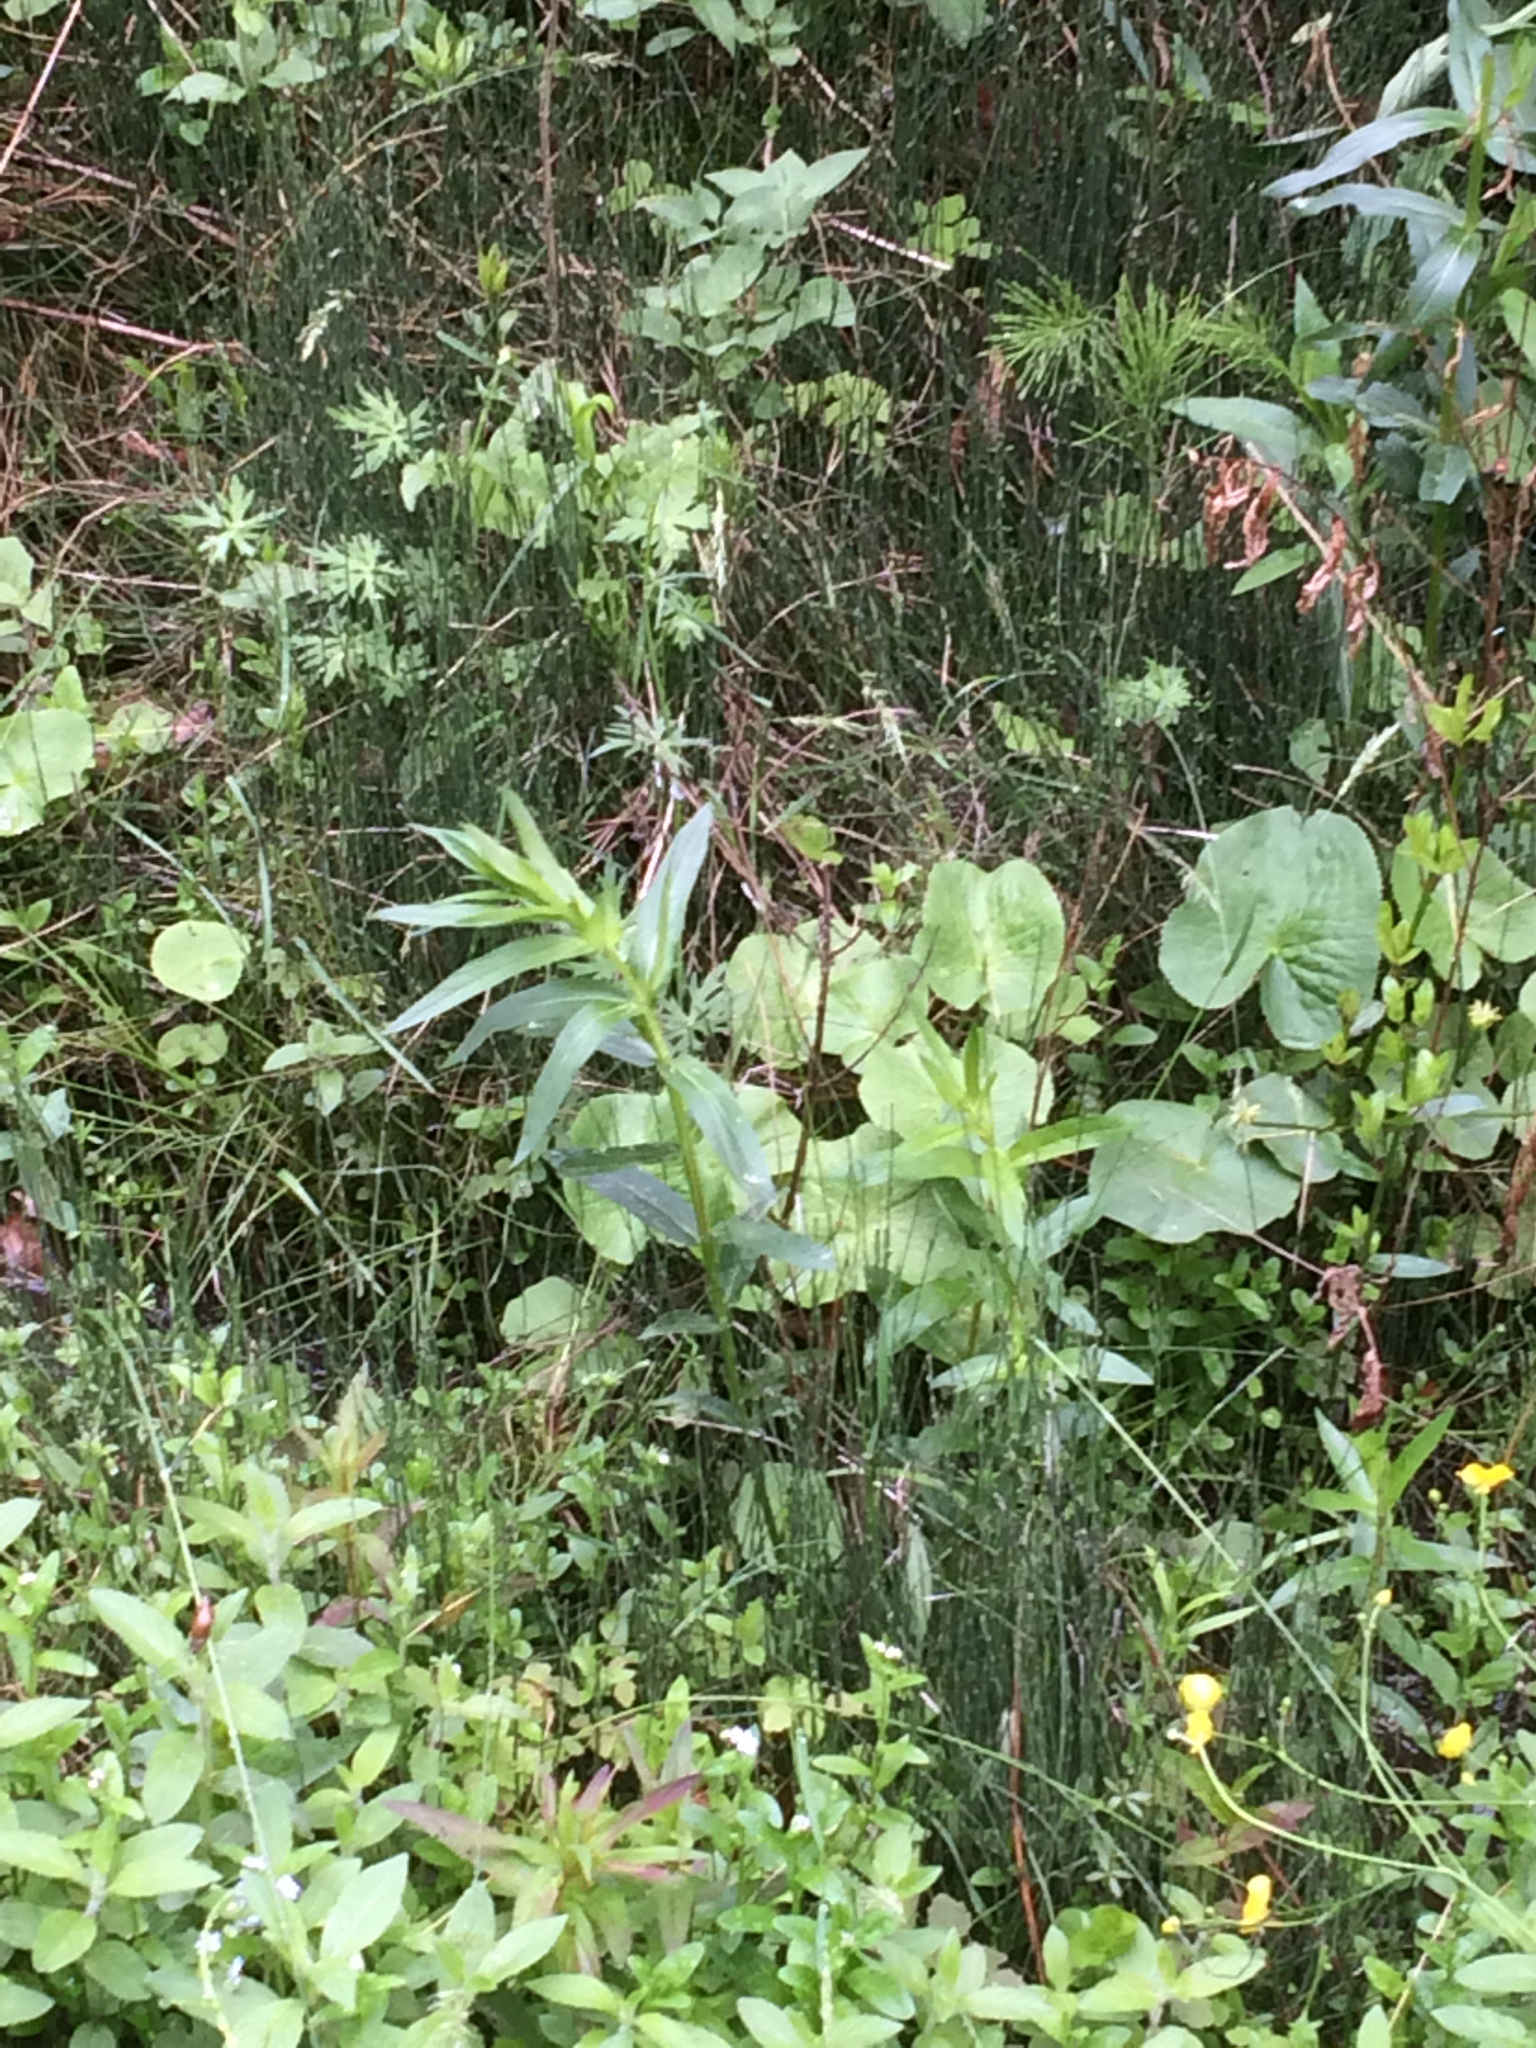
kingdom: Plantae
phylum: Tracheophyta
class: Polypodiopsida
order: Equisetales
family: Equisetaceae
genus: Equisetum
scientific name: Equisetum scirpoides
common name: Delicate horsetail
